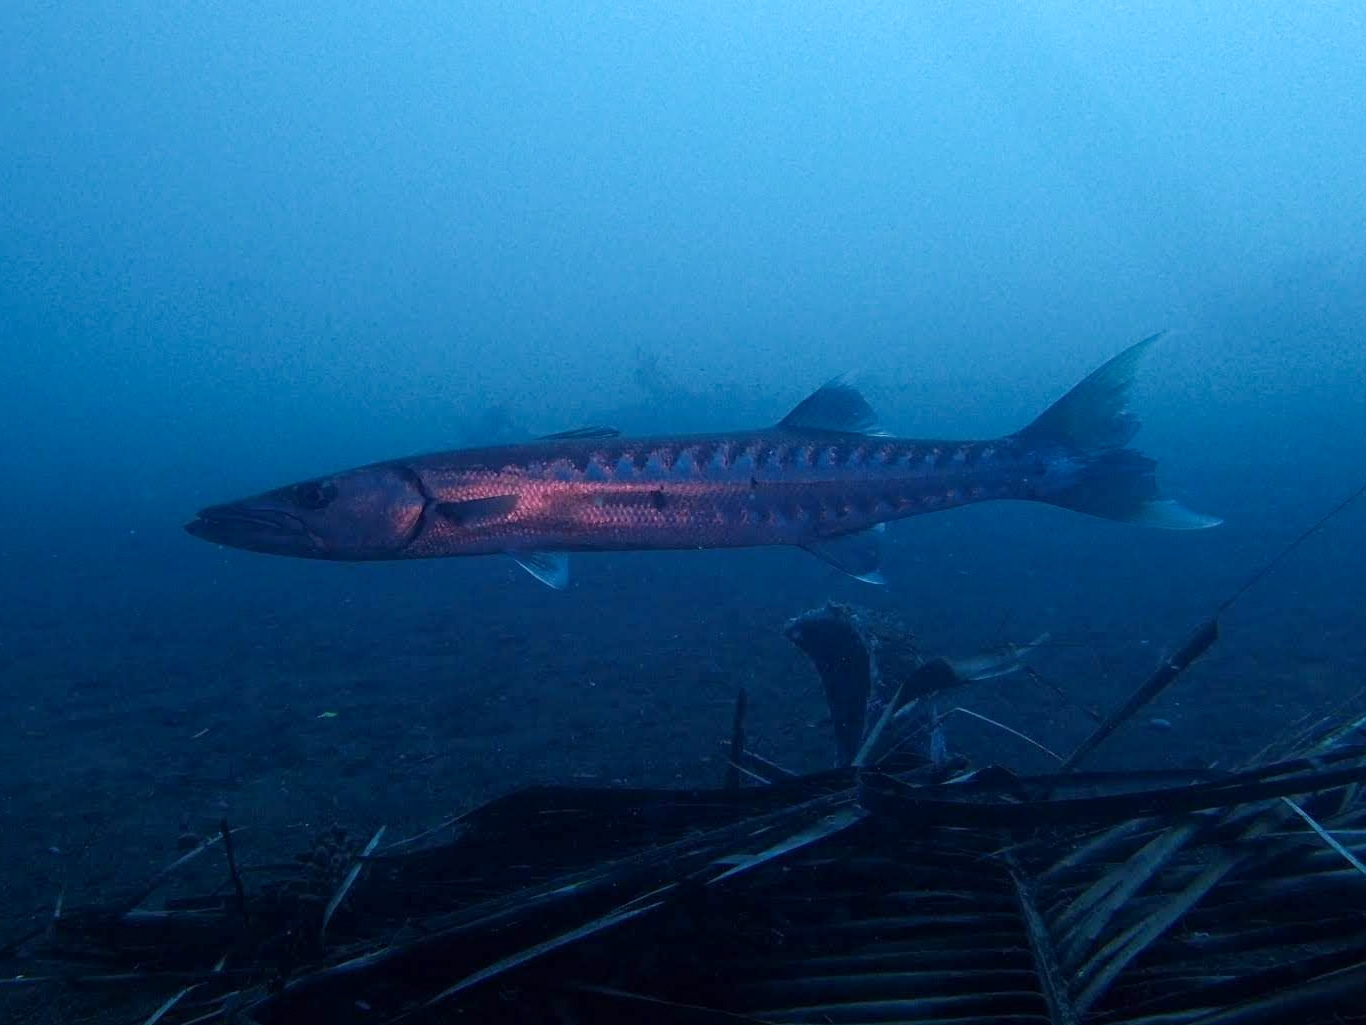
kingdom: Animalia
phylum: Chordata
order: Perciformes
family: Sphyraenidae
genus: Sphyraena
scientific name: Sphyraena barracuda
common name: Great barracuda
